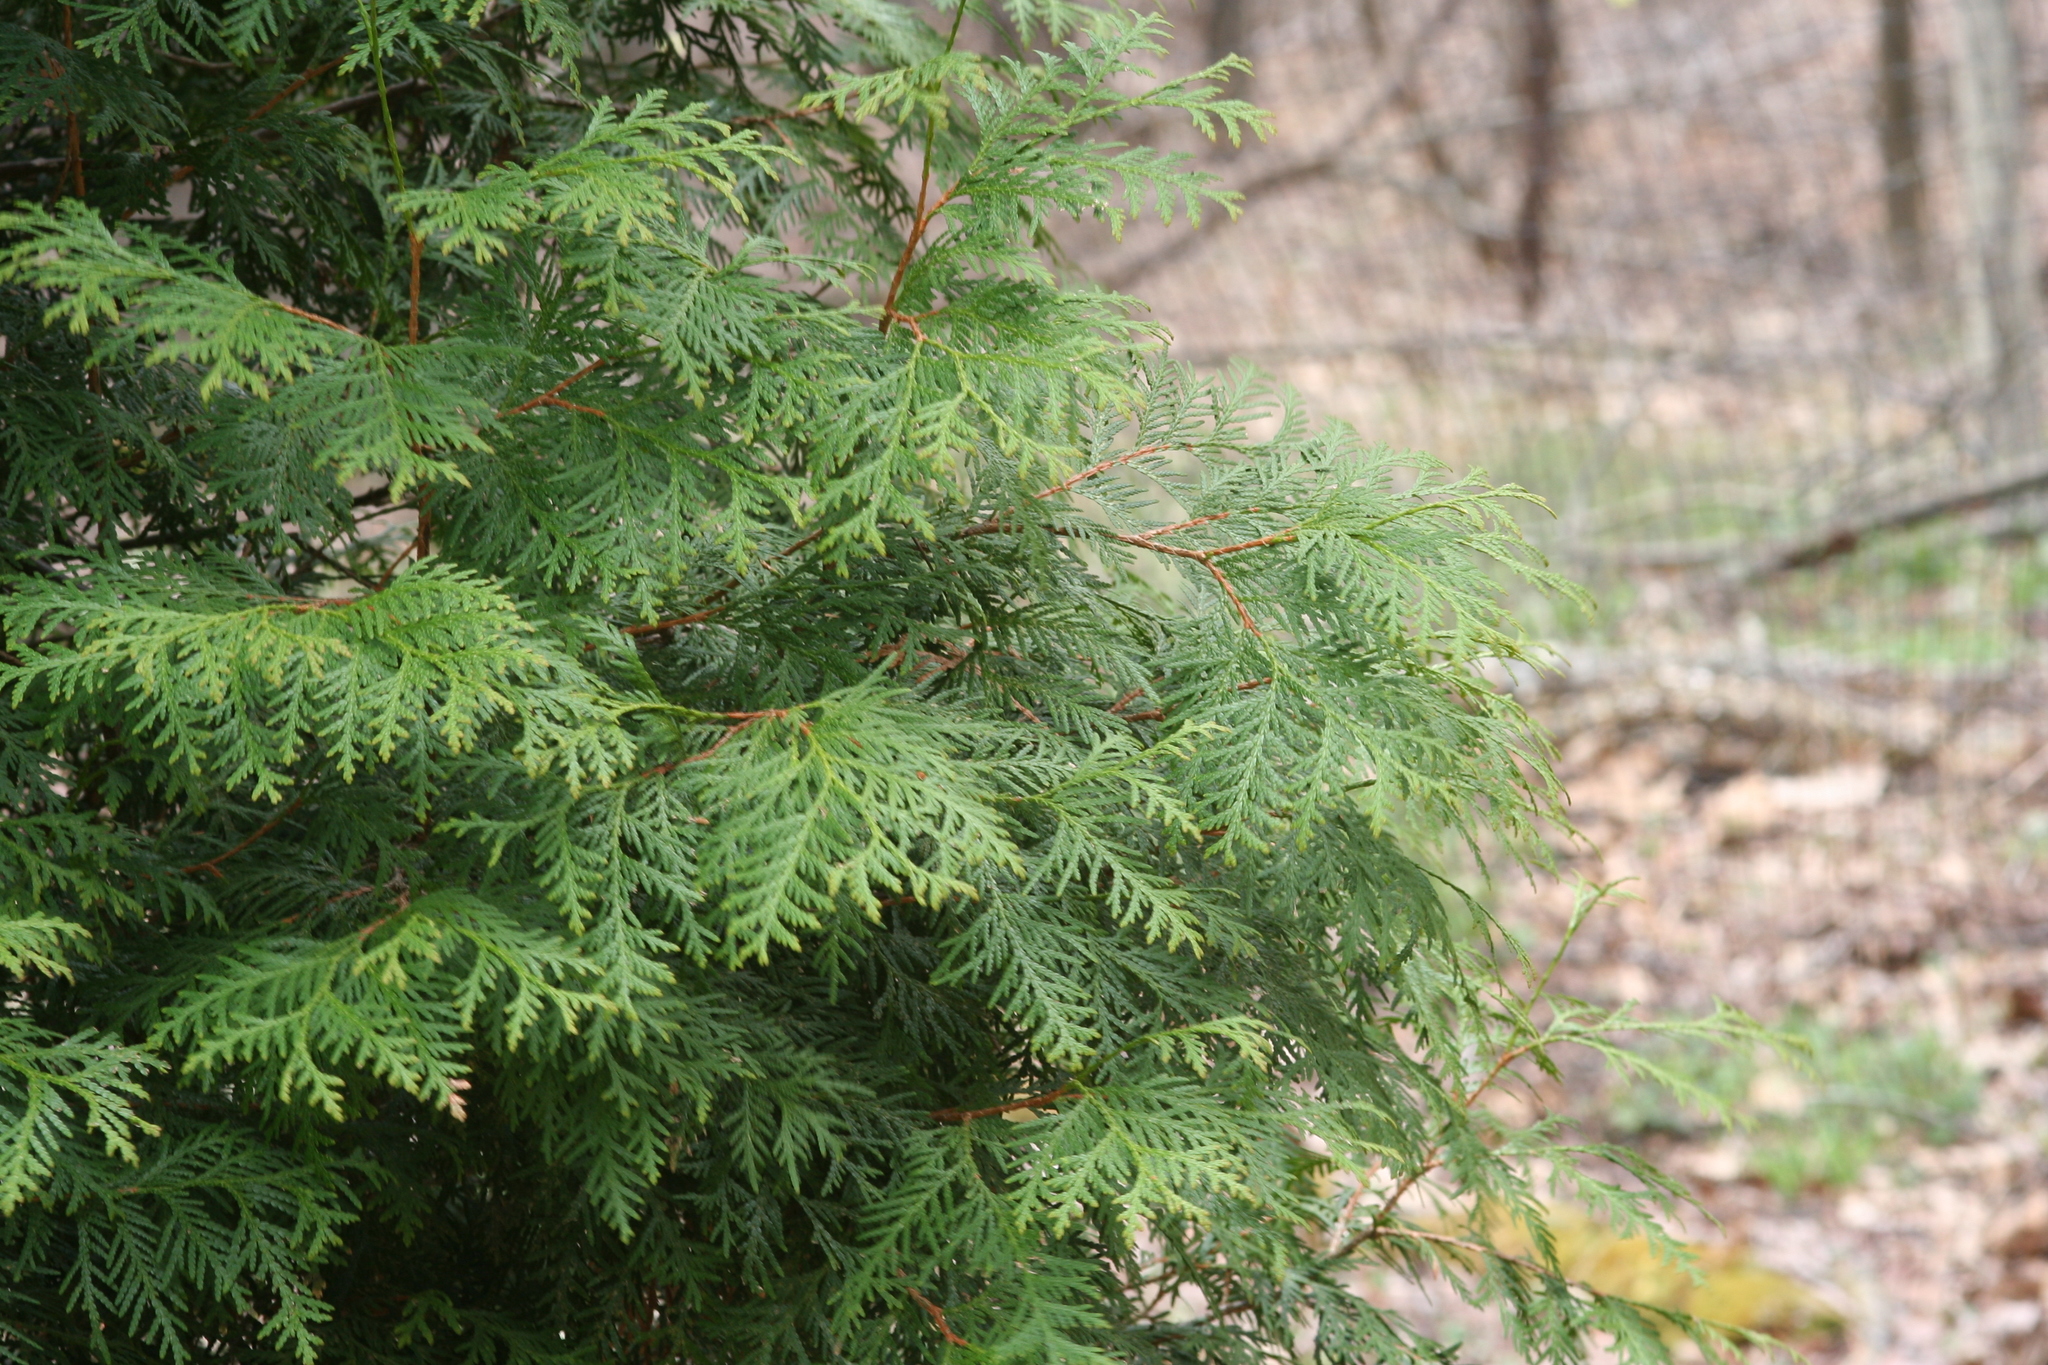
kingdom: Plantae
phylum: Tracheophyta
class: Pinopsida
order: Pinales
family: Cupressaceae
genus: Thuja
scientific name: Thuja occidentalis
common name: Northern white-cedar
